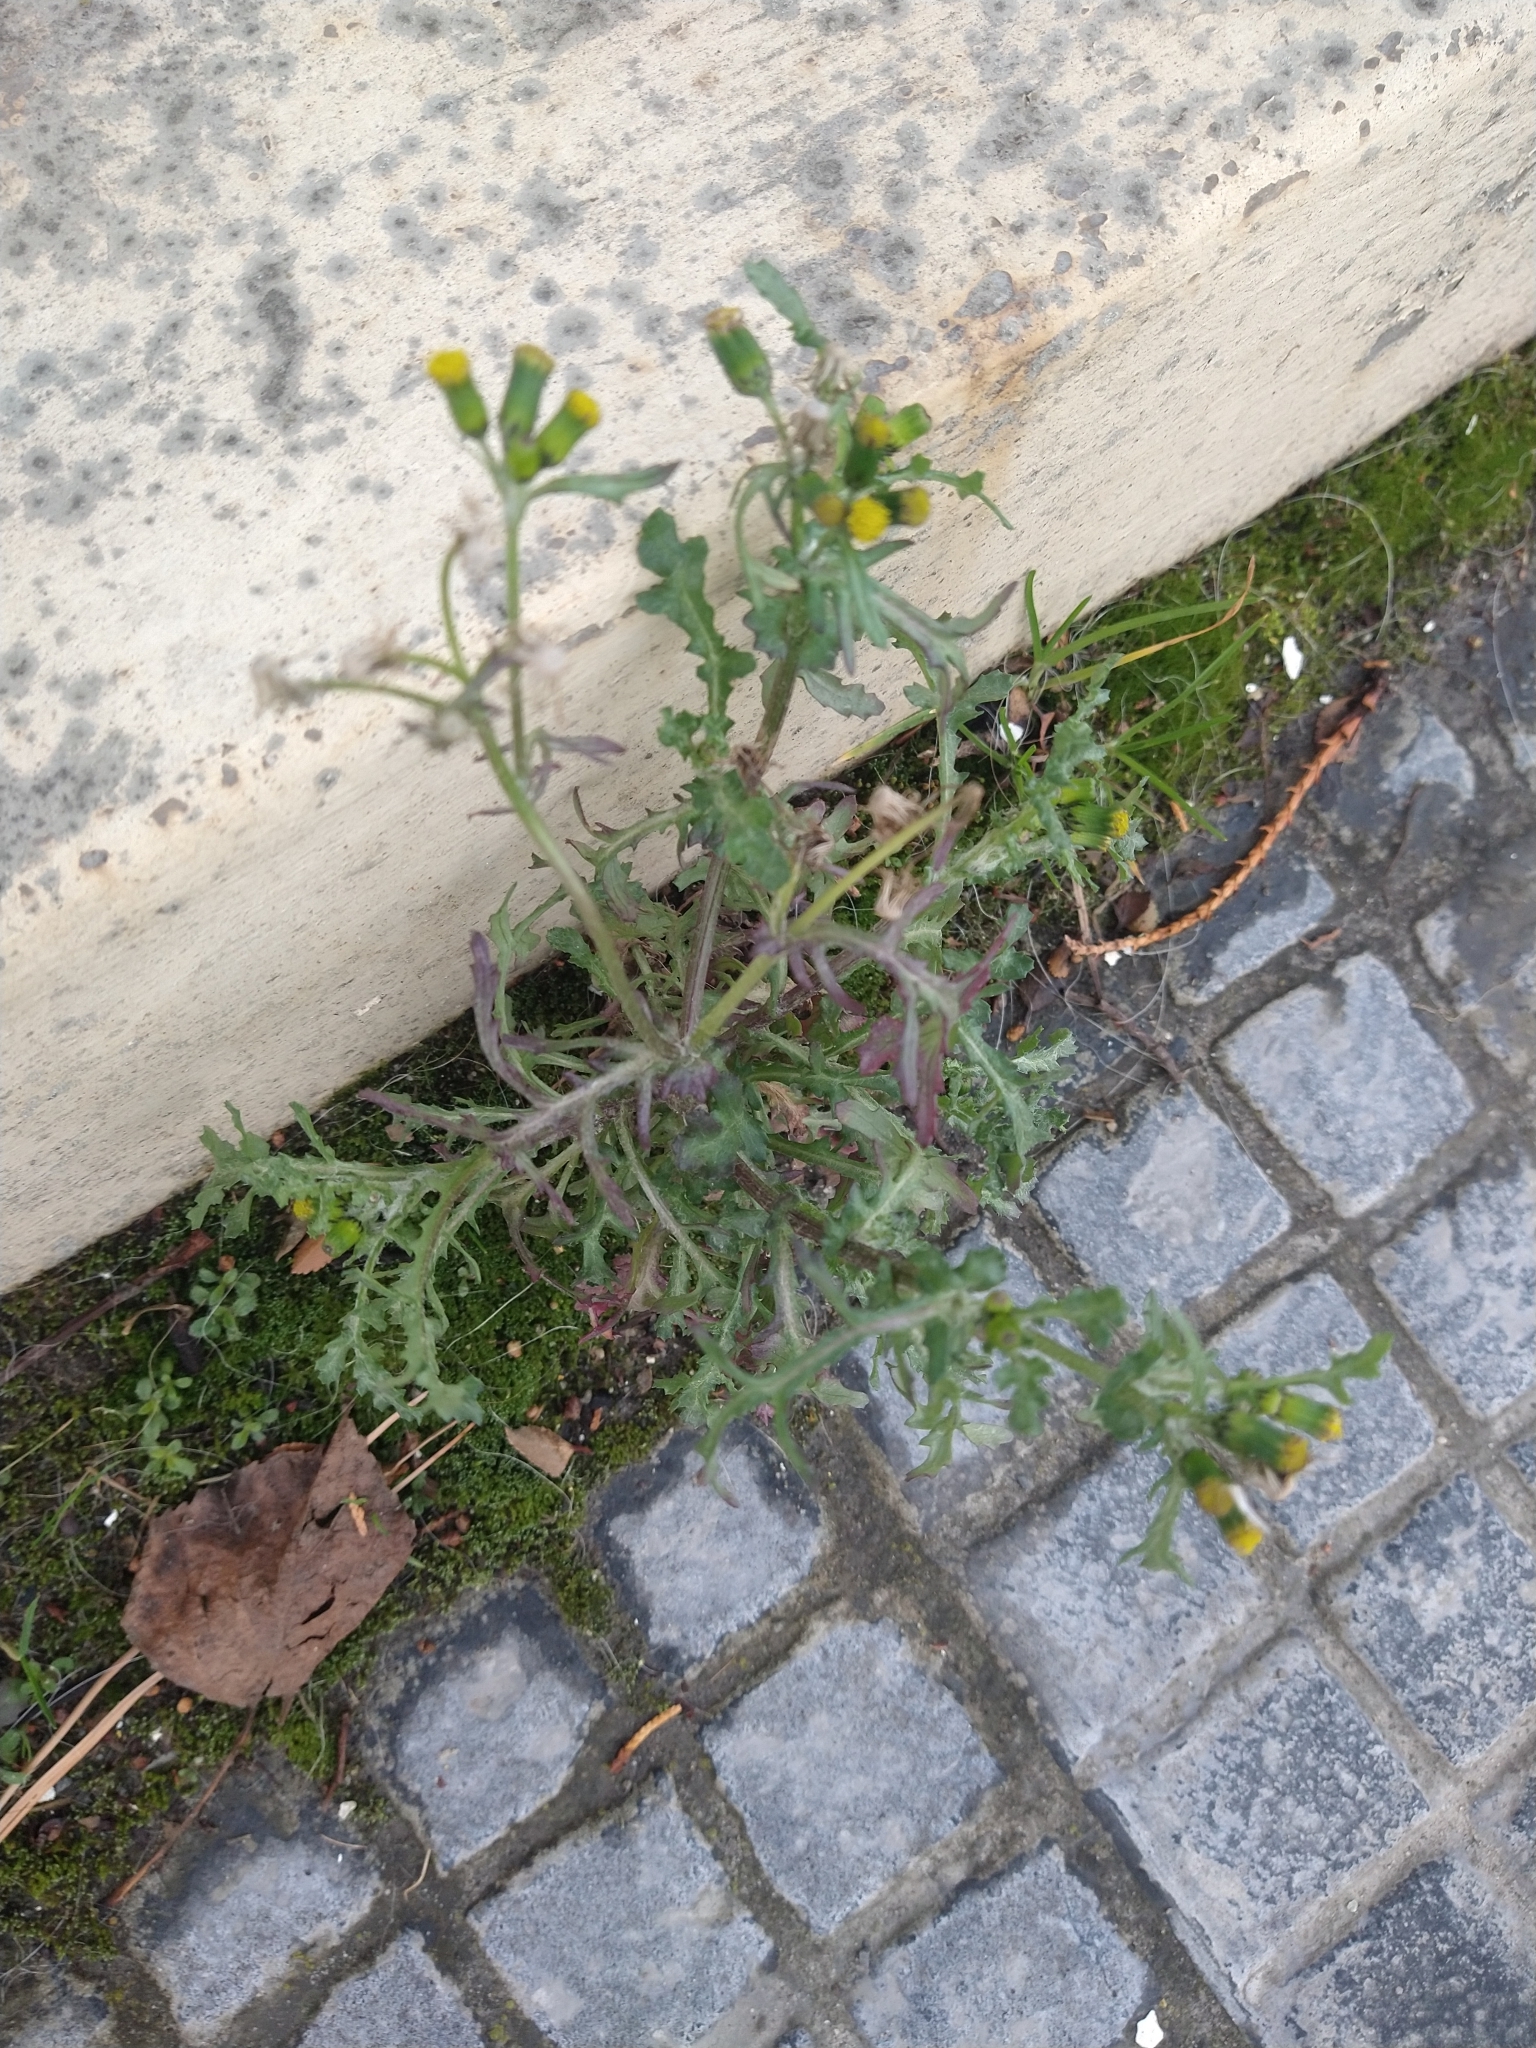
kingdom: Plantae
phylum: Tracheophyta
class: Magnoliopsida
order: Asterales
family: Asteraceae
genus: Senecio
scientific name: Senecio vulgaris
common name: Old-man-in-the-spring
